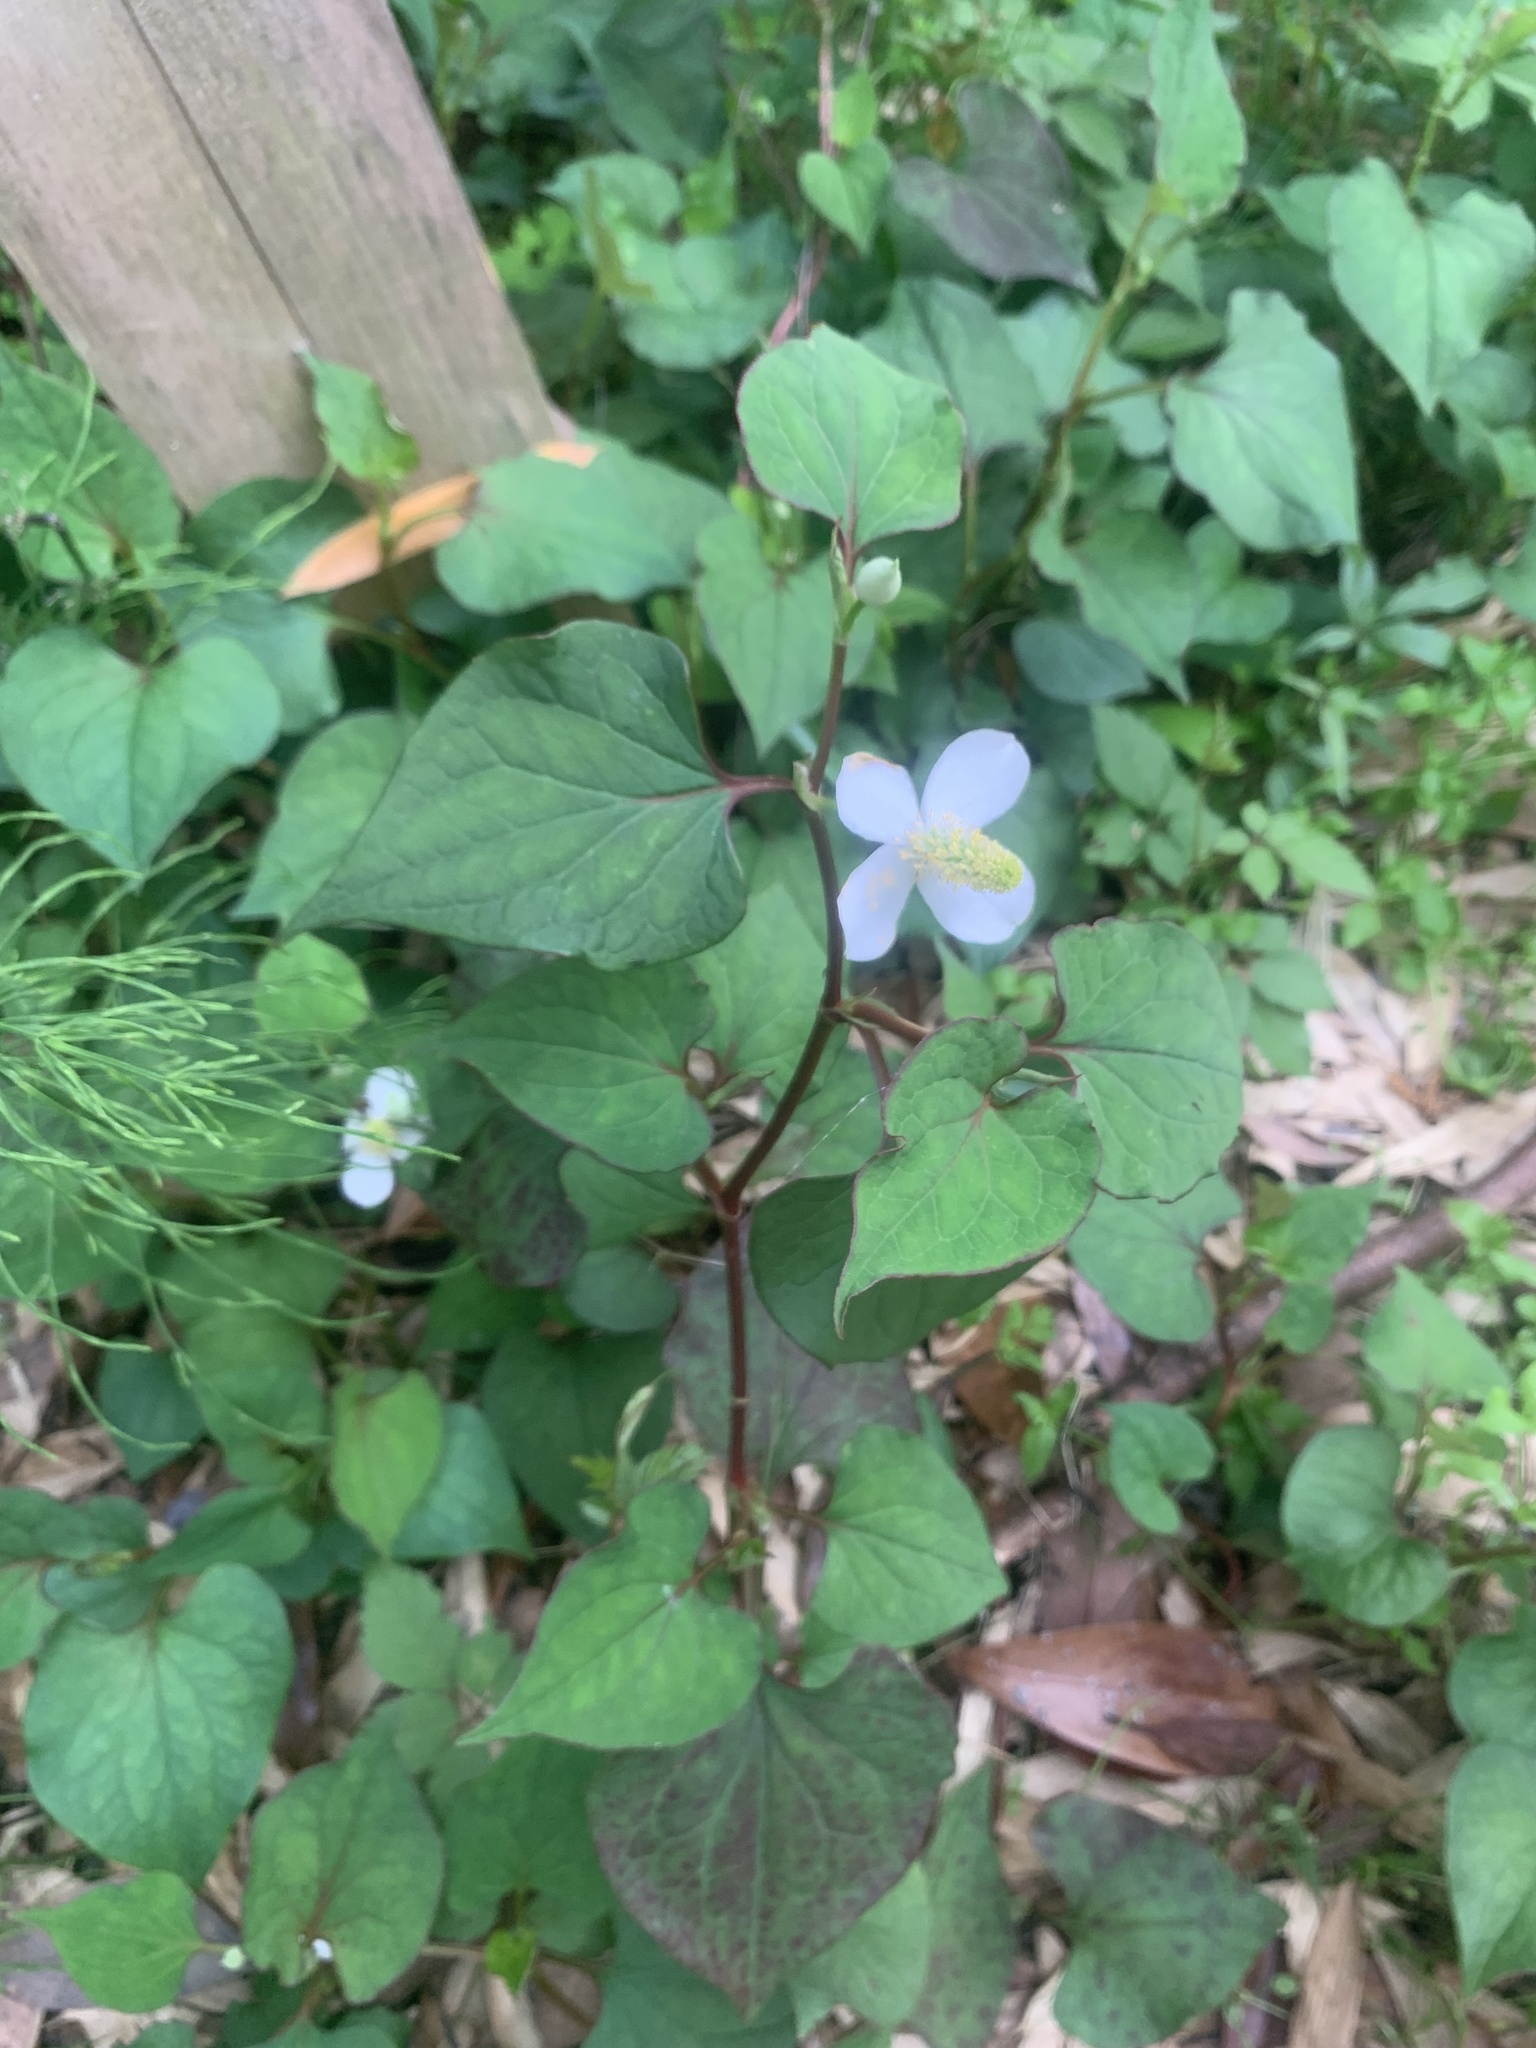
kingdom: Plantae
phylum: Tracheophyta
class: Magnoliopsida
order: Piperales
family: Saururaceae
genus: Houttuynia
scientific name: Houttuynia cordata
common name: Chameleon
